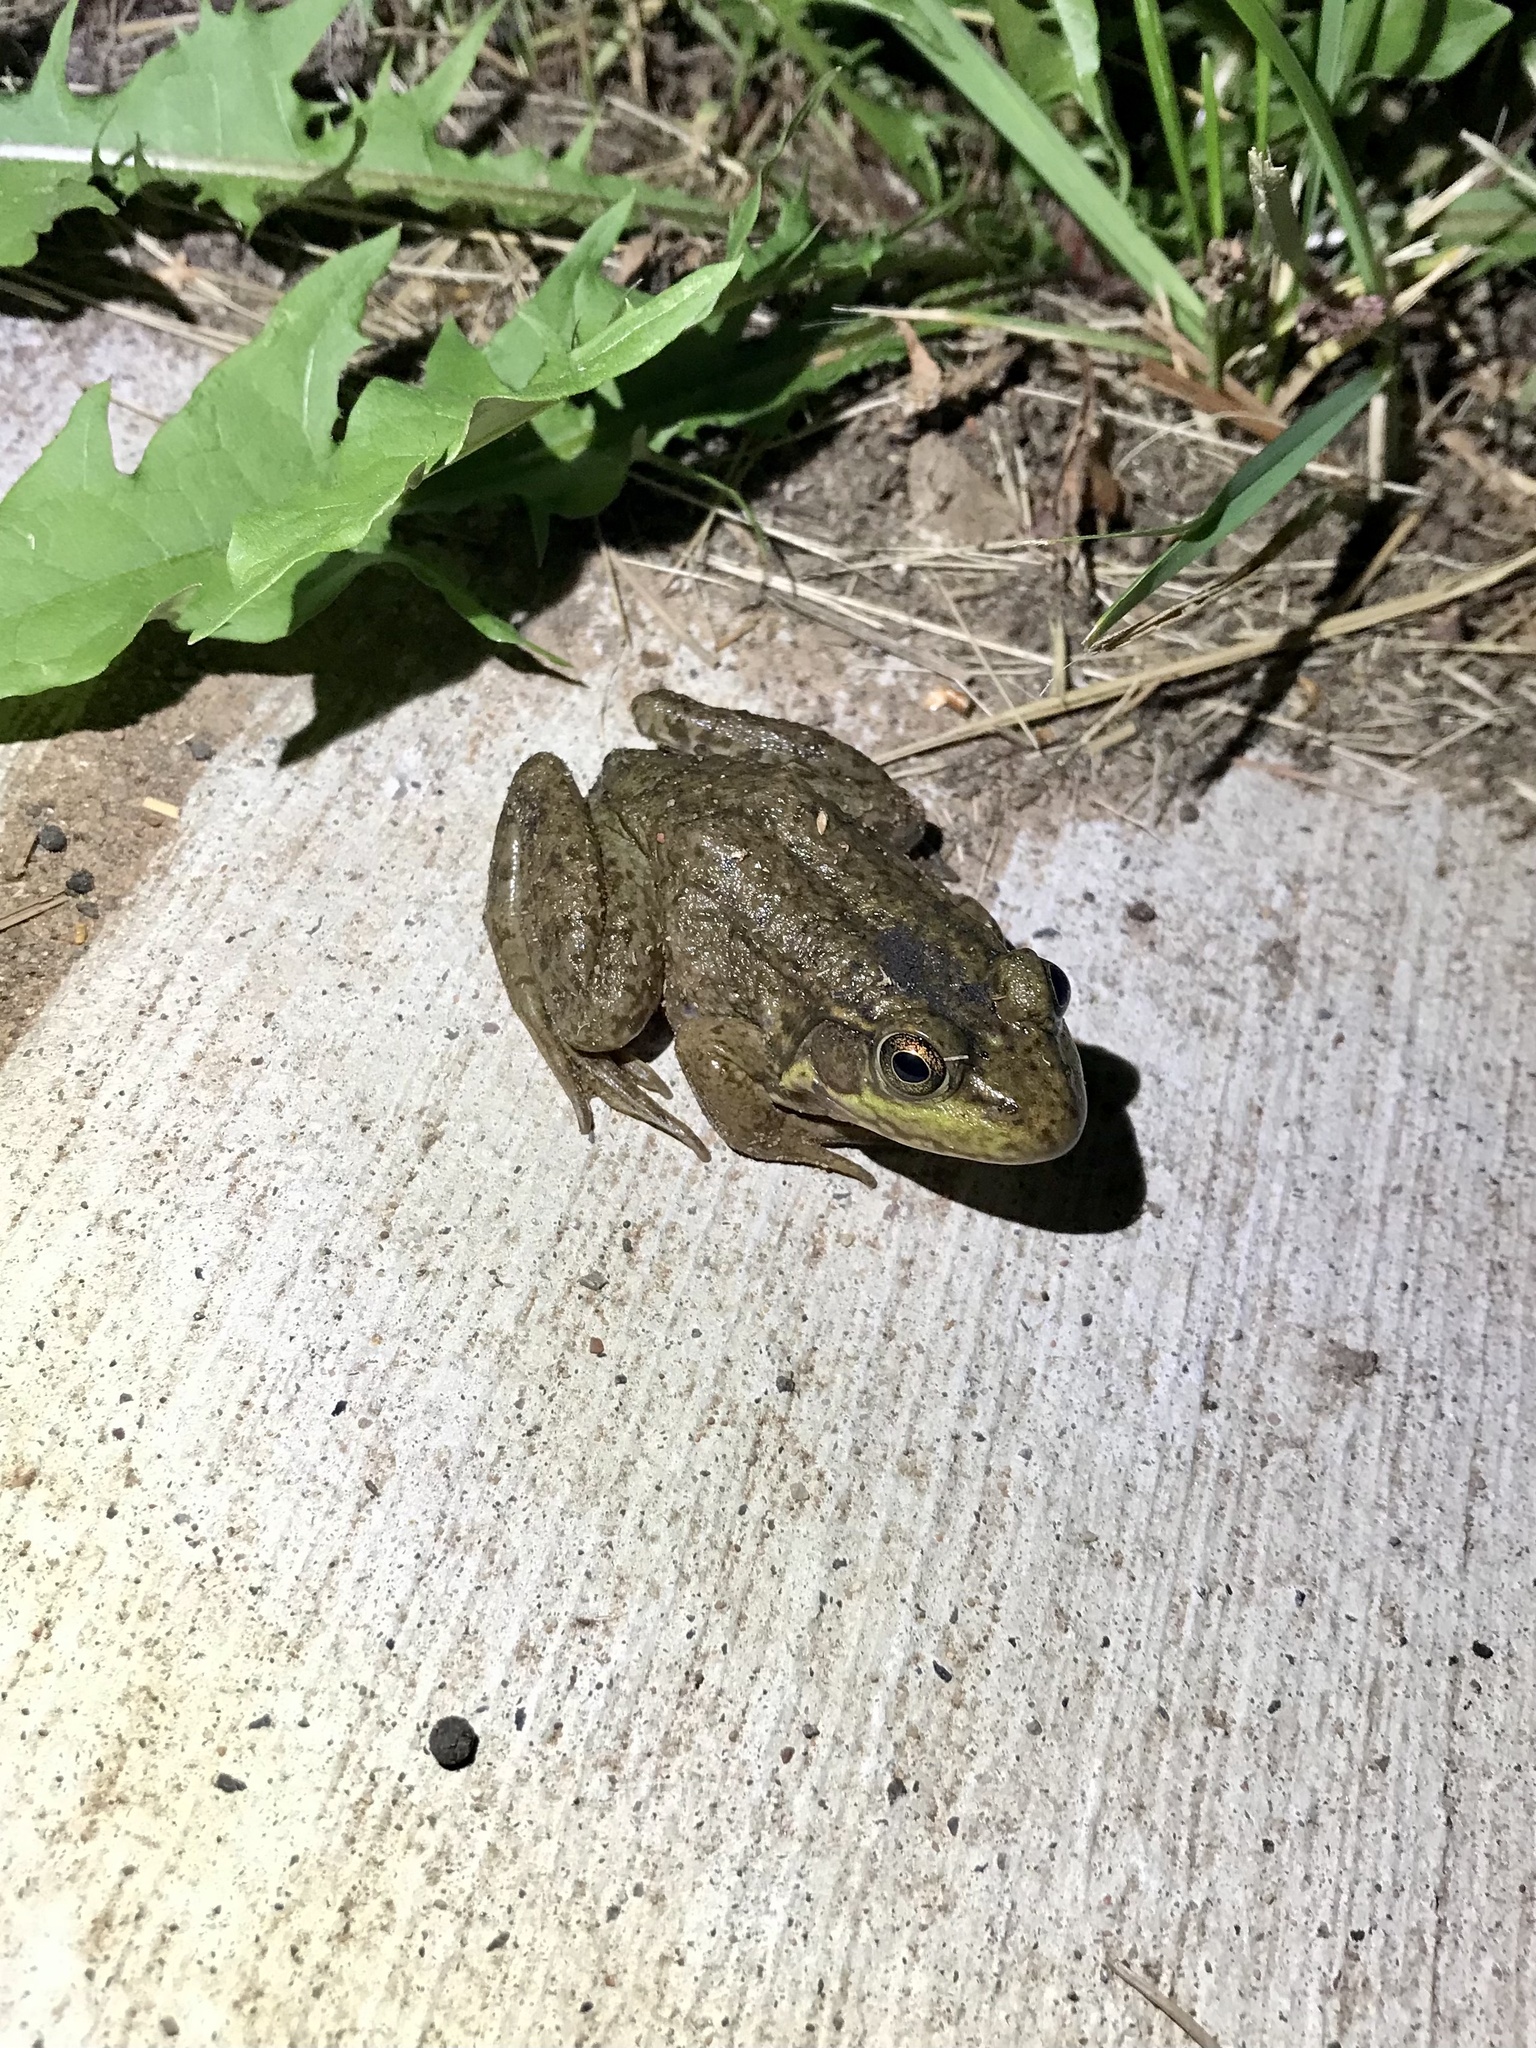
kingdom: Animalia
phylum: Chordata
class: Amphibia
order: Anura
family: Ranidae
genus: Lithobates
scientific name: Lithobates clamitans
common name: Green frog
